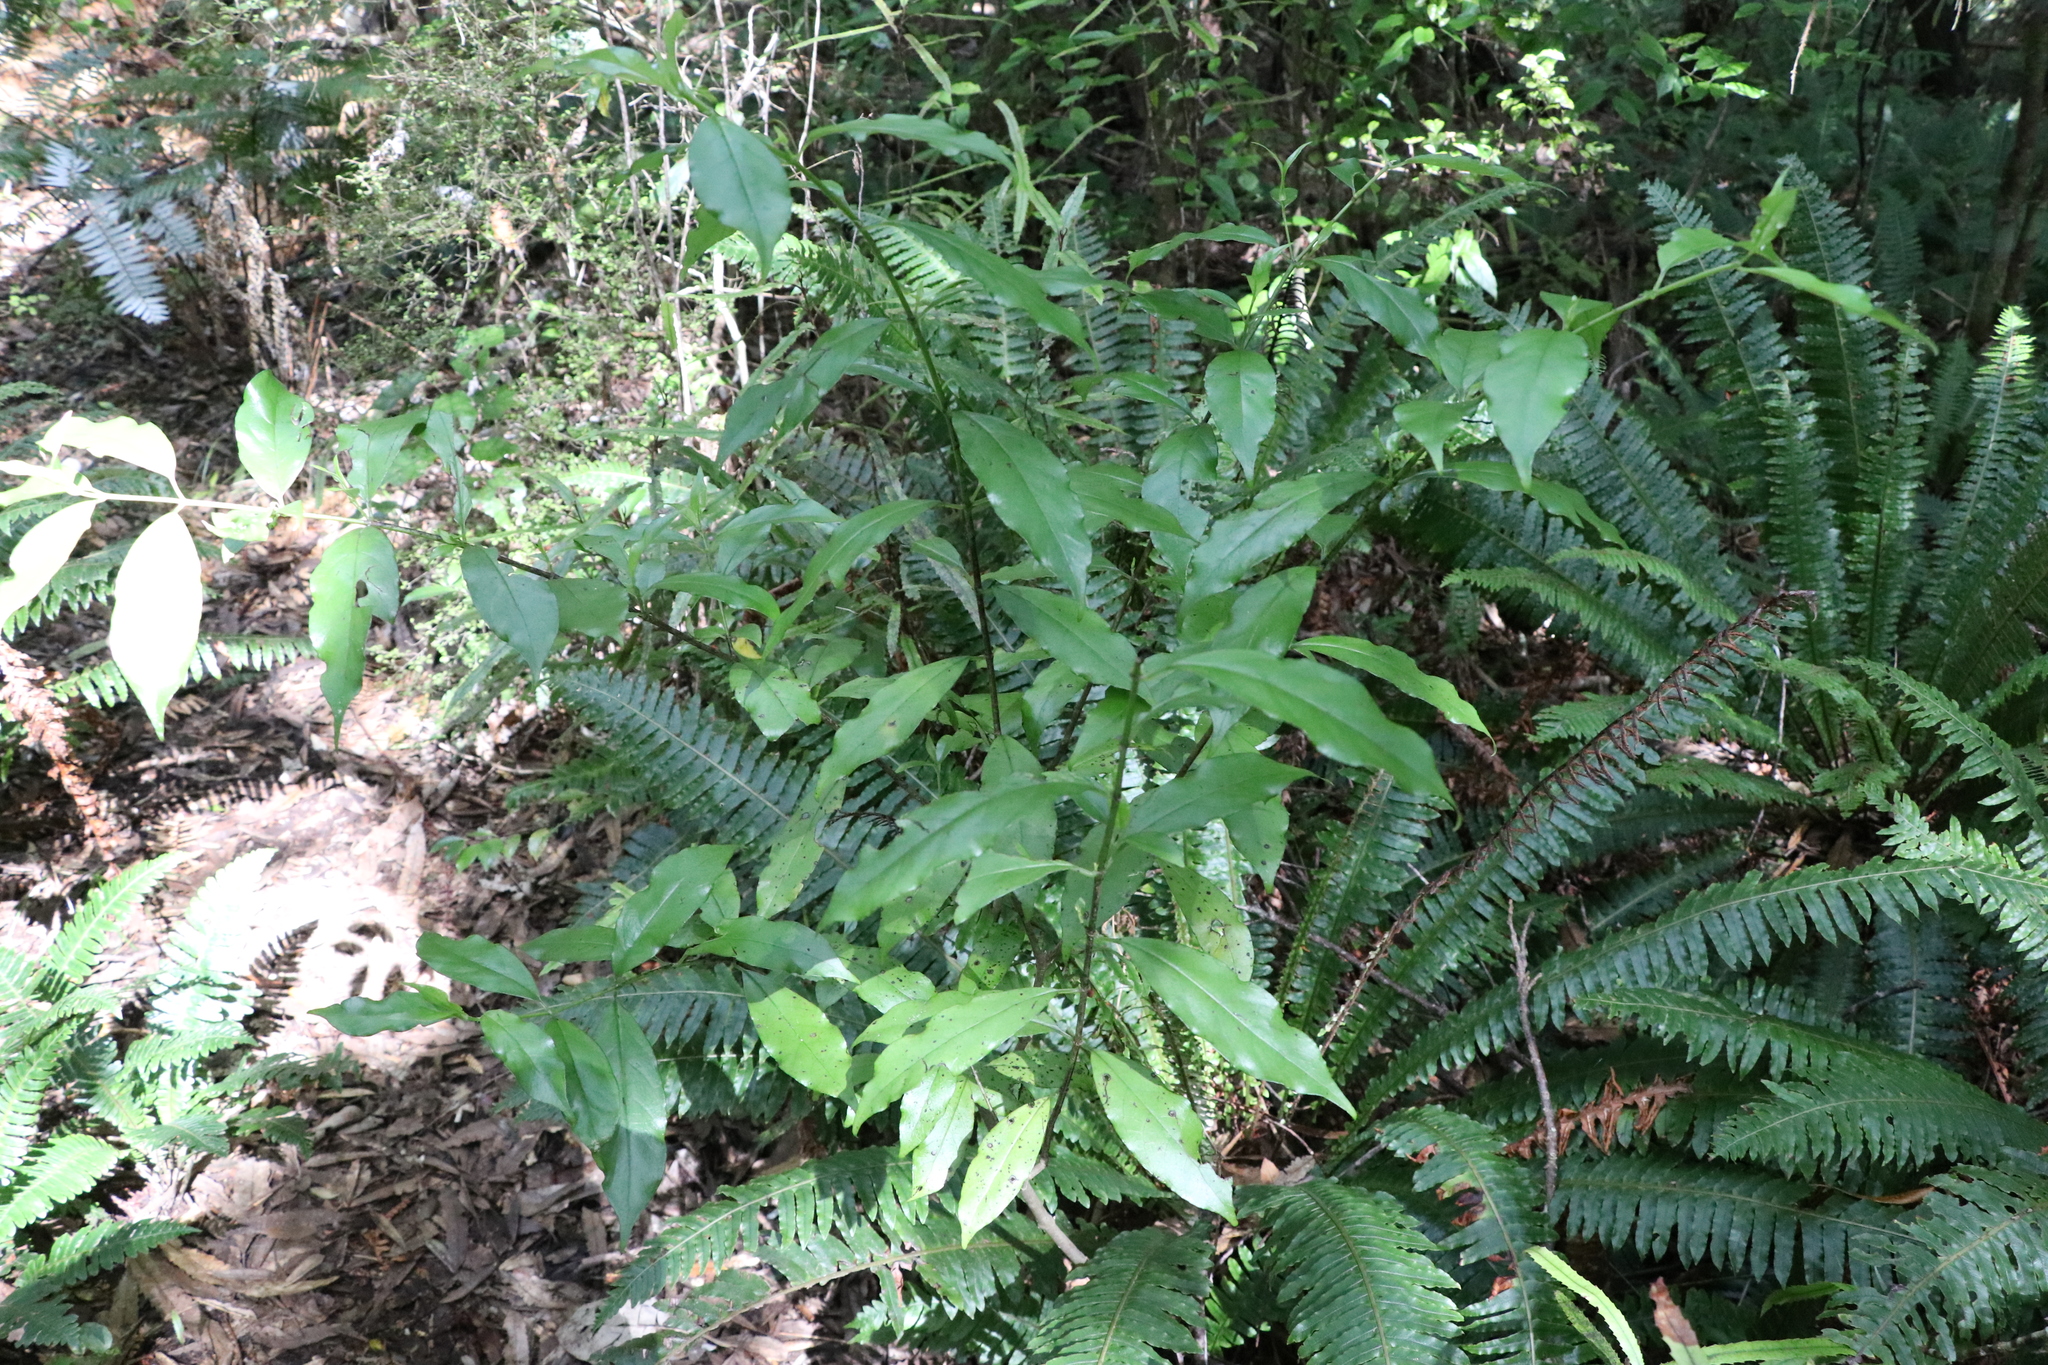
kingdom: Plantae
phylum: Tracheophyta
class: Magnoliopsida
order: Gentianales
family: Loganiaceae
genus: Geniostoma
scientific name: Geniostoma ligustrifolium
